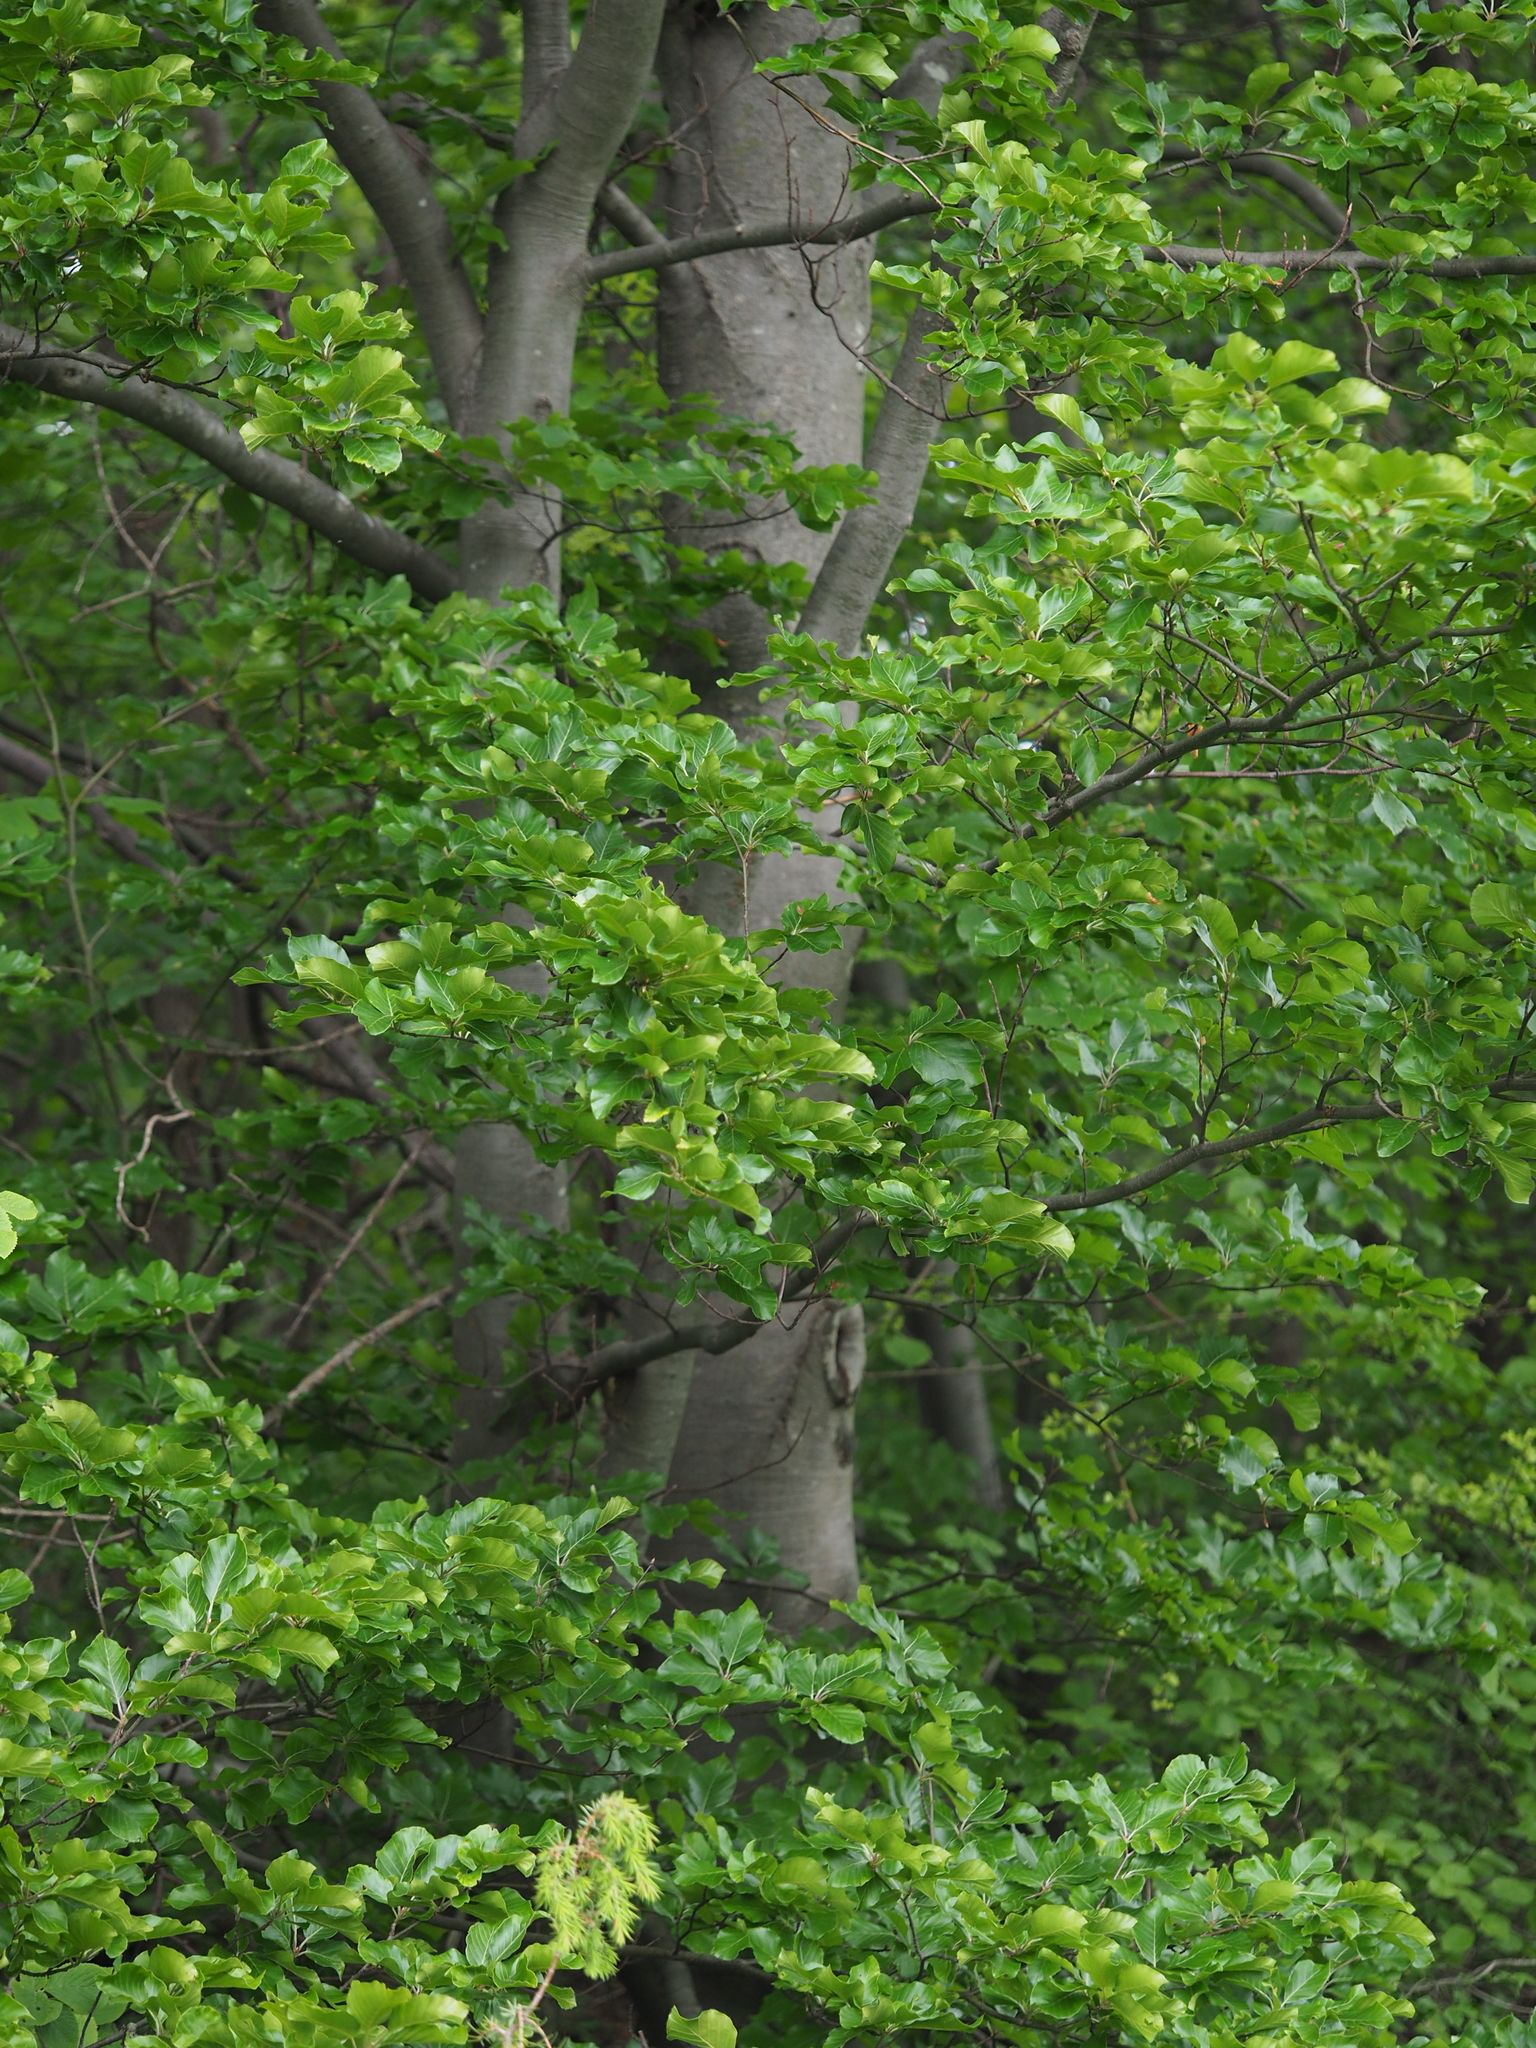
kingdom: Plantae
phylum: Tracheophyta
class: Magnoliopsida
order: Fagales
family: Fagaceae
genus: Fagus
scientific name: Fagus sylvatica
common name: Beech
